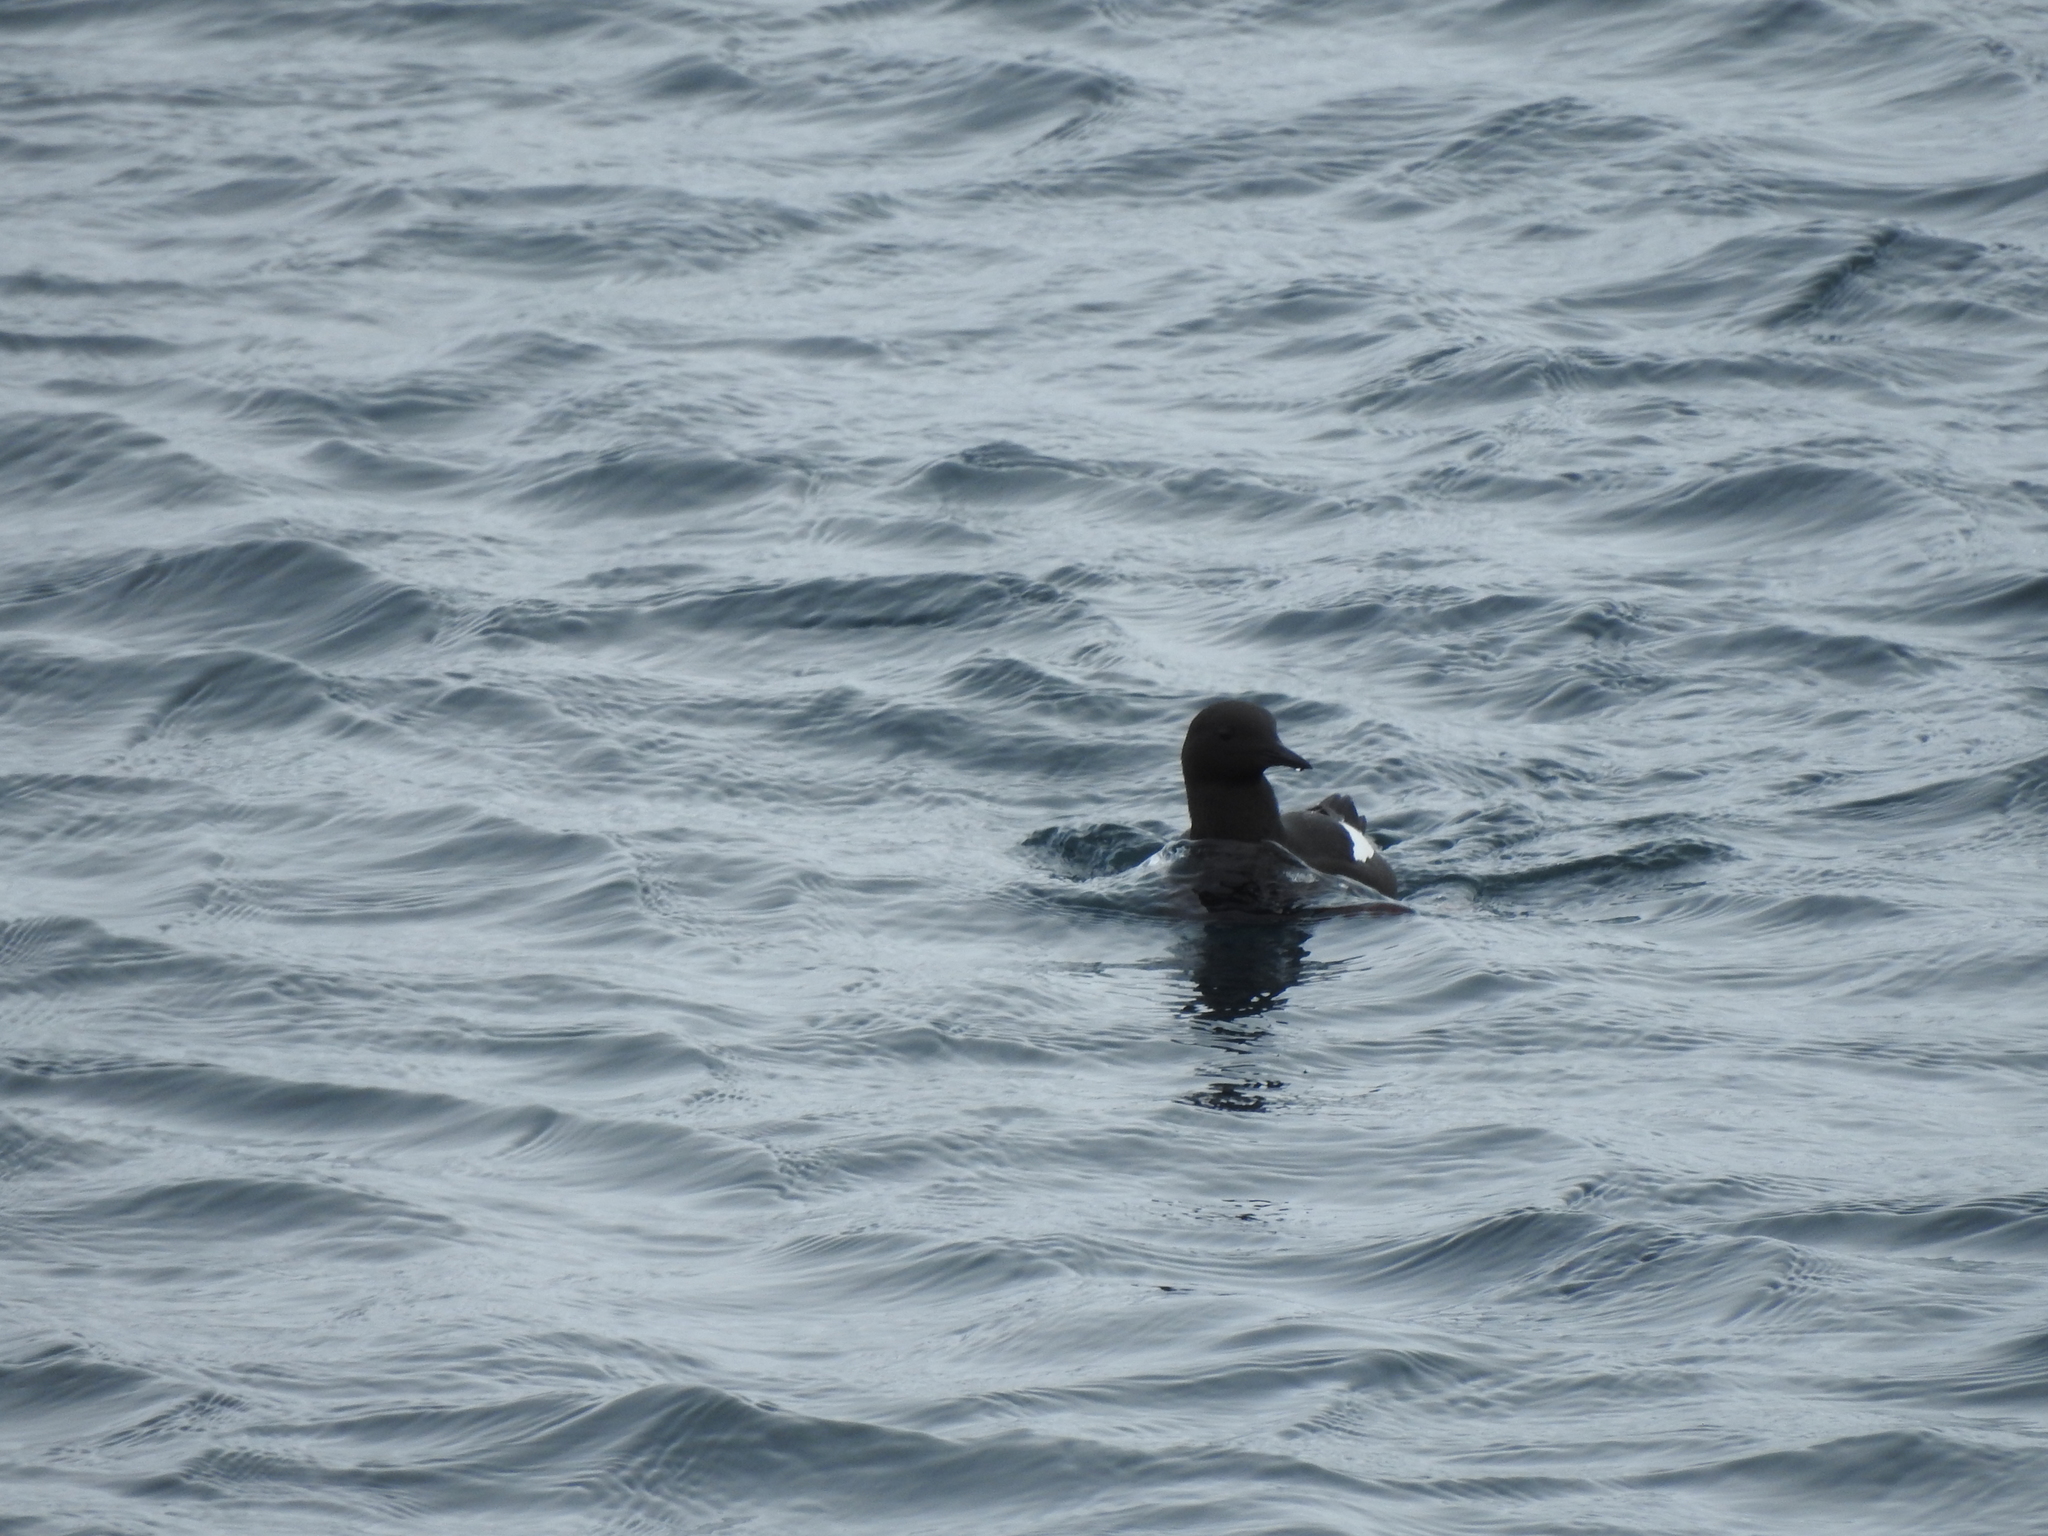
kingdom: Animalia
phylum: Chordata
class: Aves
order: Charadriiformes
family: Alcidae
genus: Cepphus
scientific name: Cepphus grylle
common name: Black guillemot
